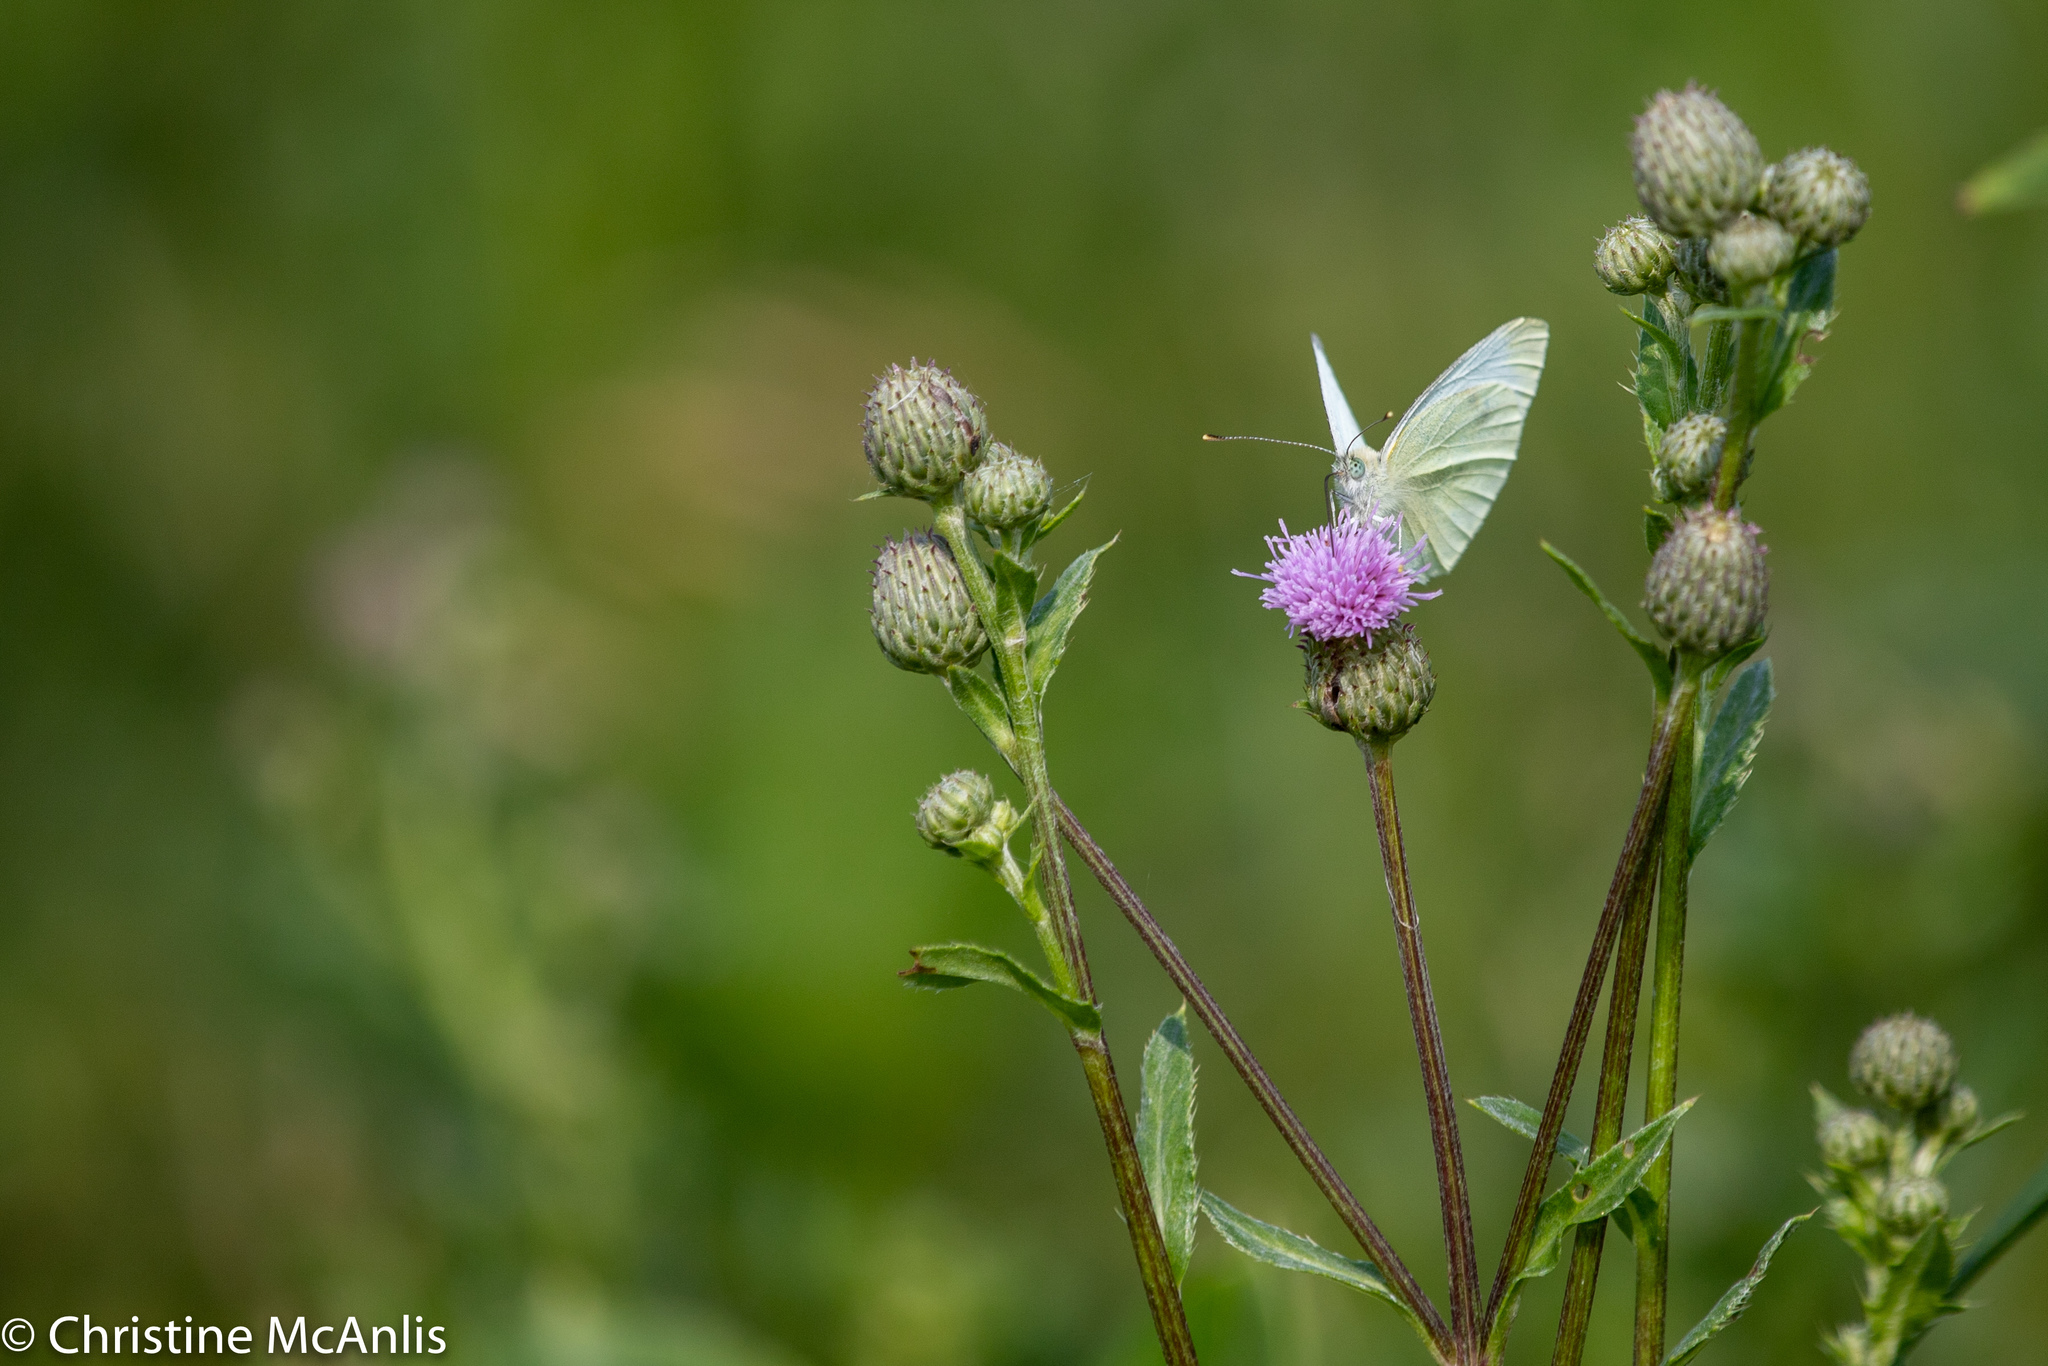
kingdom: Animalia
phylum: Arthropoda
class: Insecta
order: Lepidoptera
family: Pieridae
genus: Pieris
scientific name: Pieris rapae
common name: Small white
